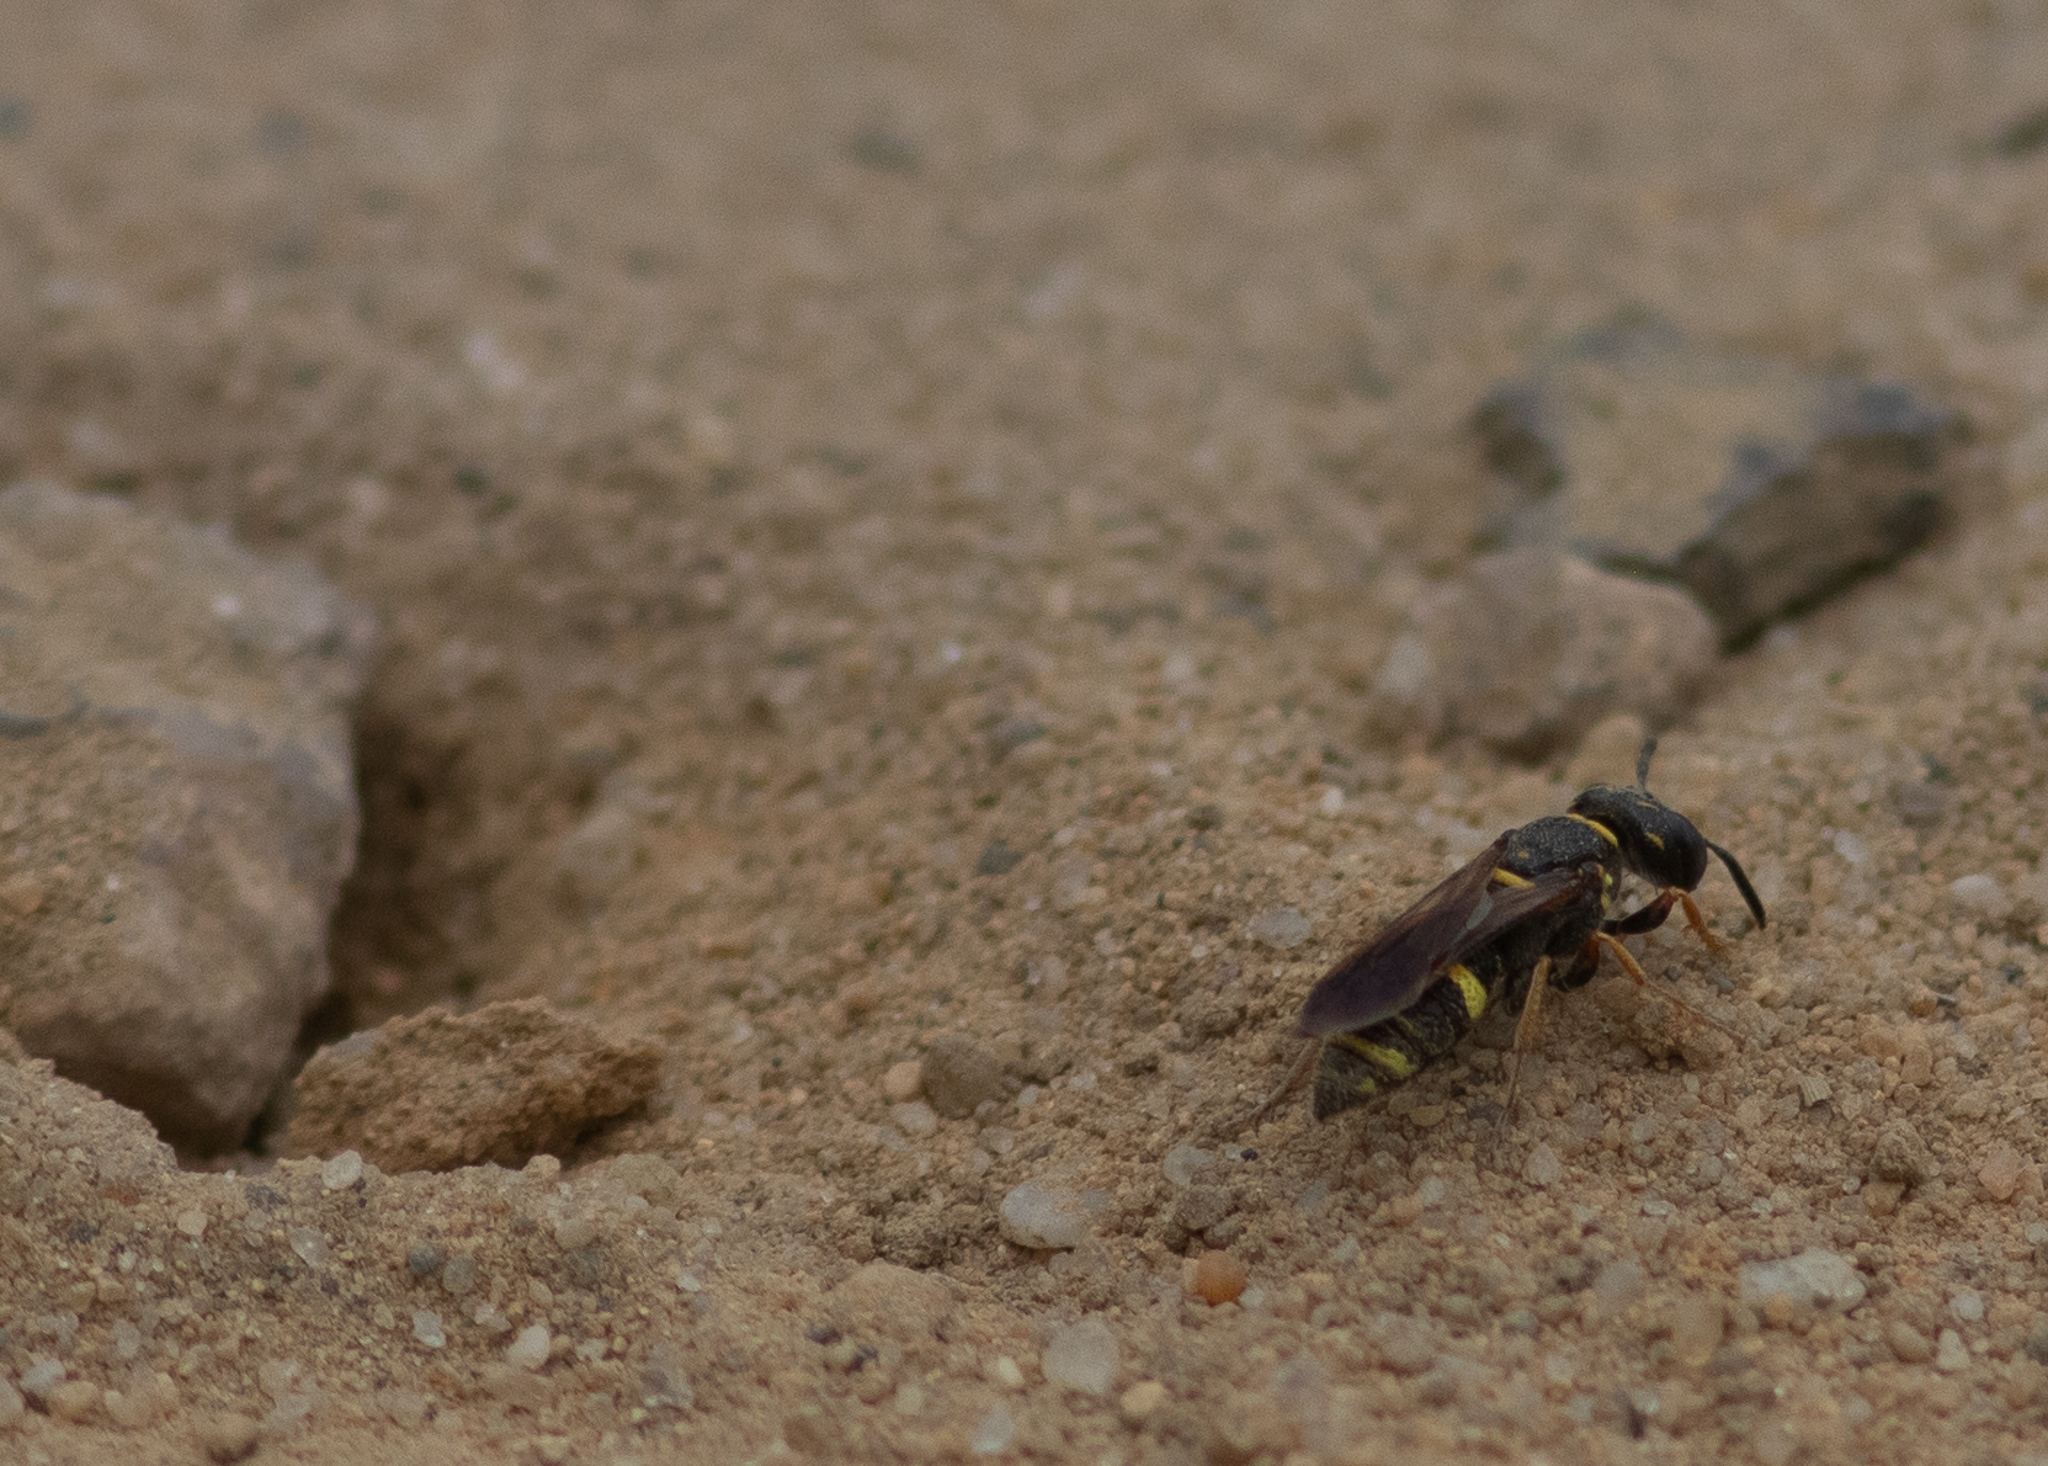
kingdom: Animalia
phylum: Arthropoda
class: Insecta
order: Hymenoptera
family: Crabronidae
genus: Philanthus
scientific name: Philanthus gibbosus
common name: Humped beewolf
